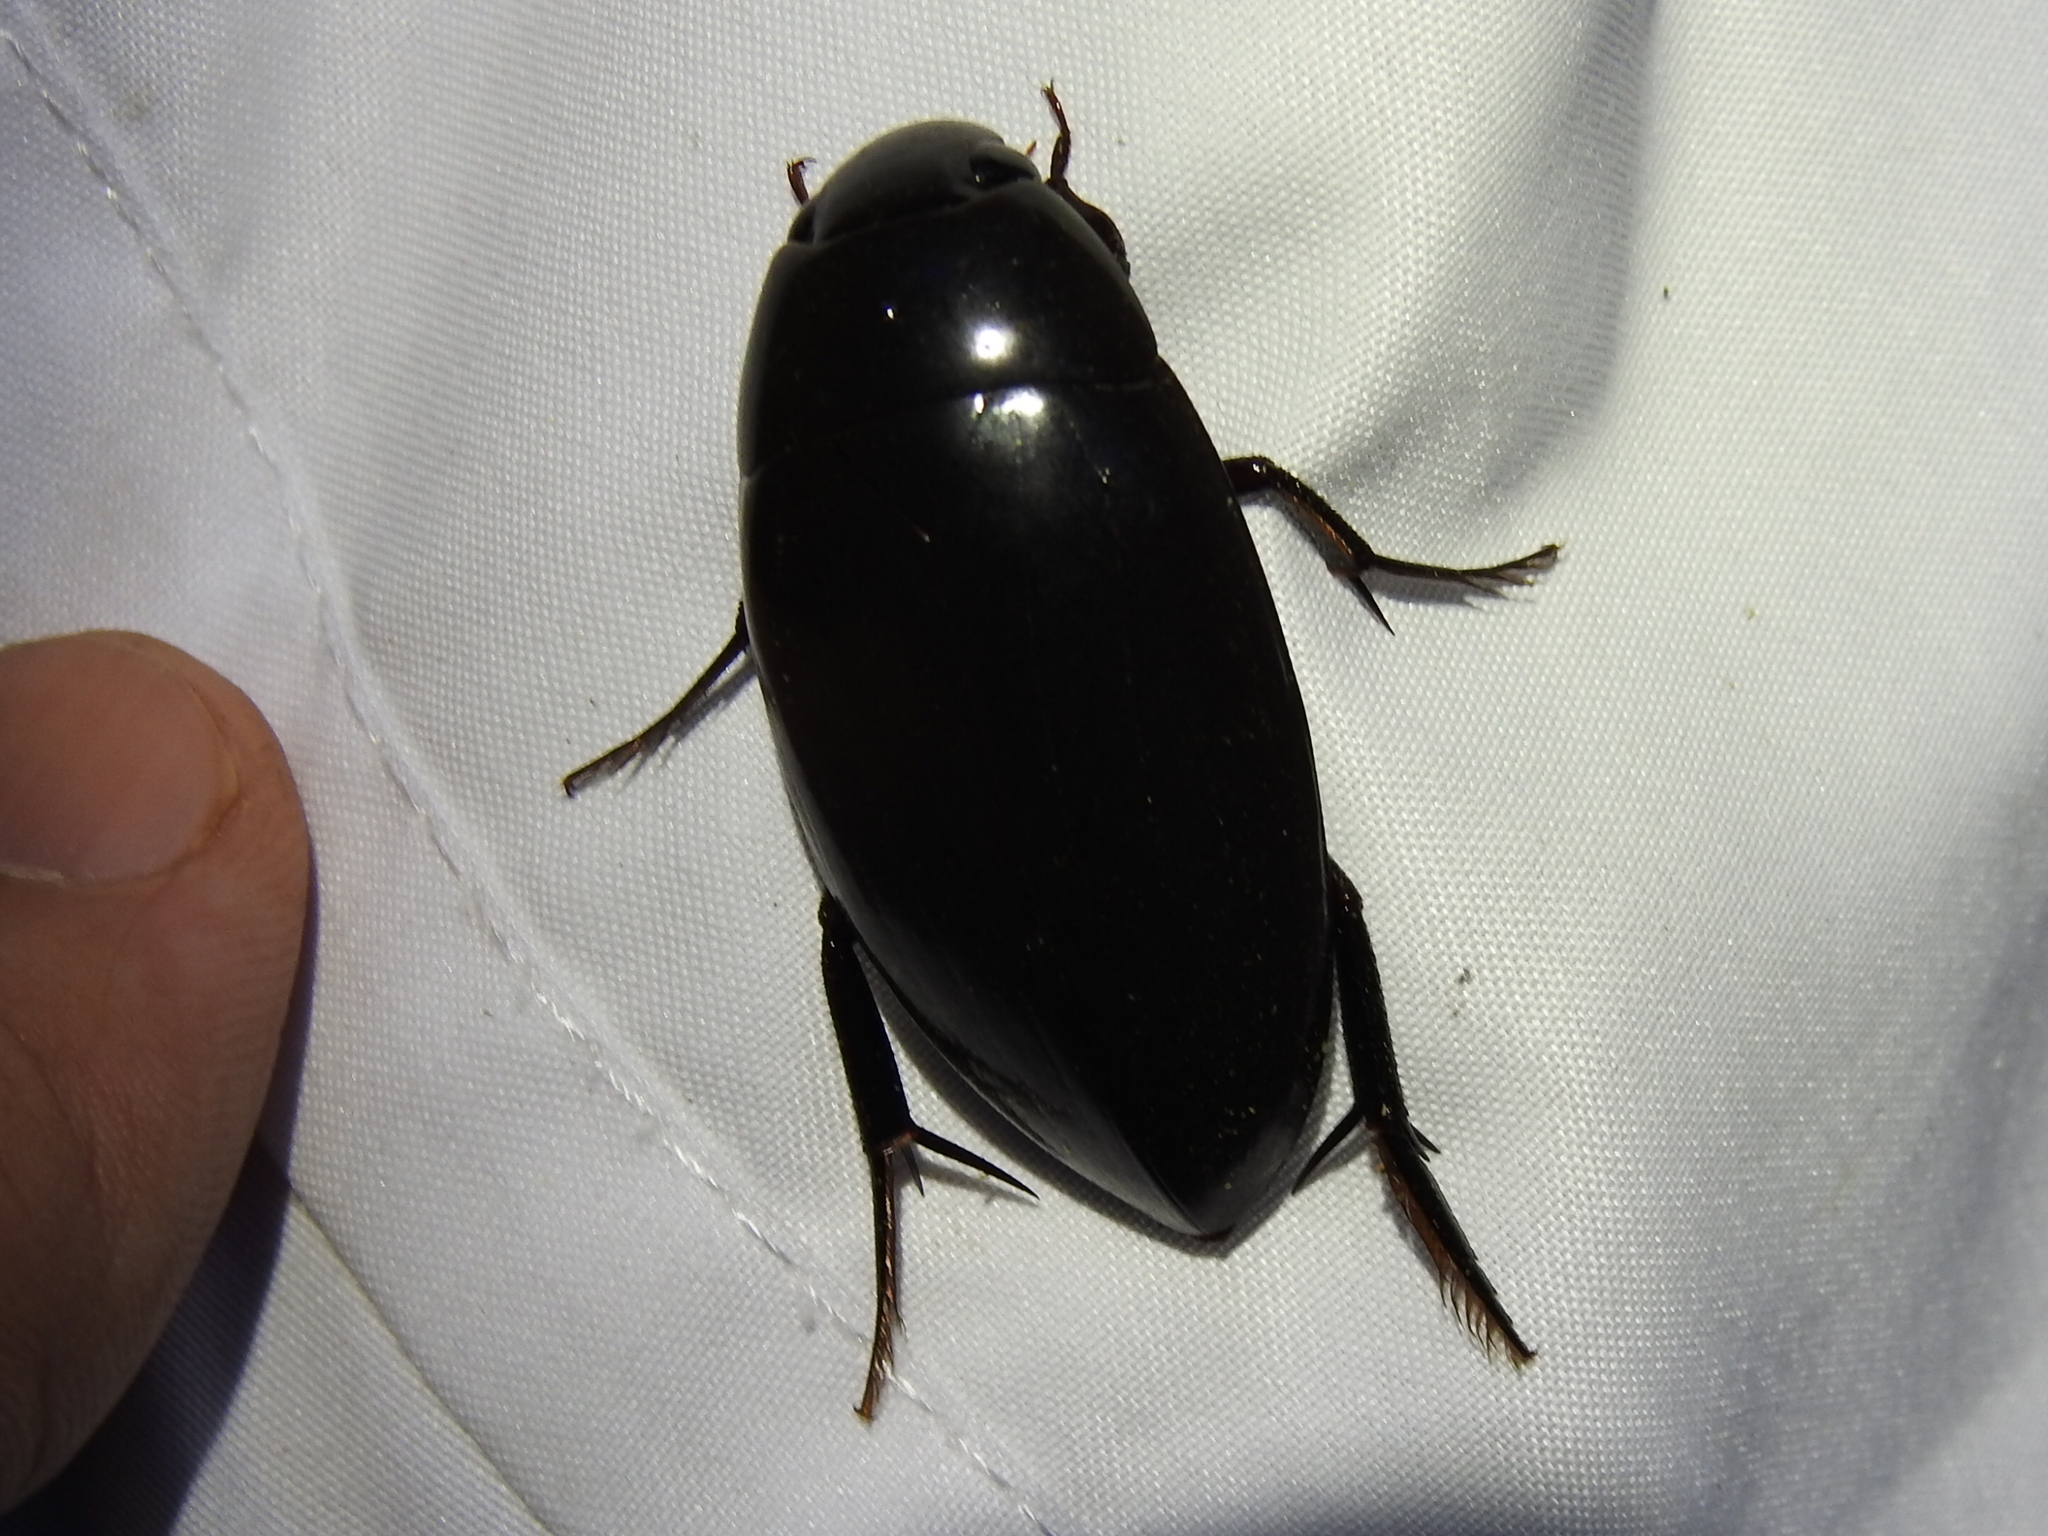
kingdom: Animalia
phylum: Arthropoda
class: Insecta
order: Coleoptera
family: Hydrophilidae
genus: Hydrophilus
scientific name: Hydrophilus
